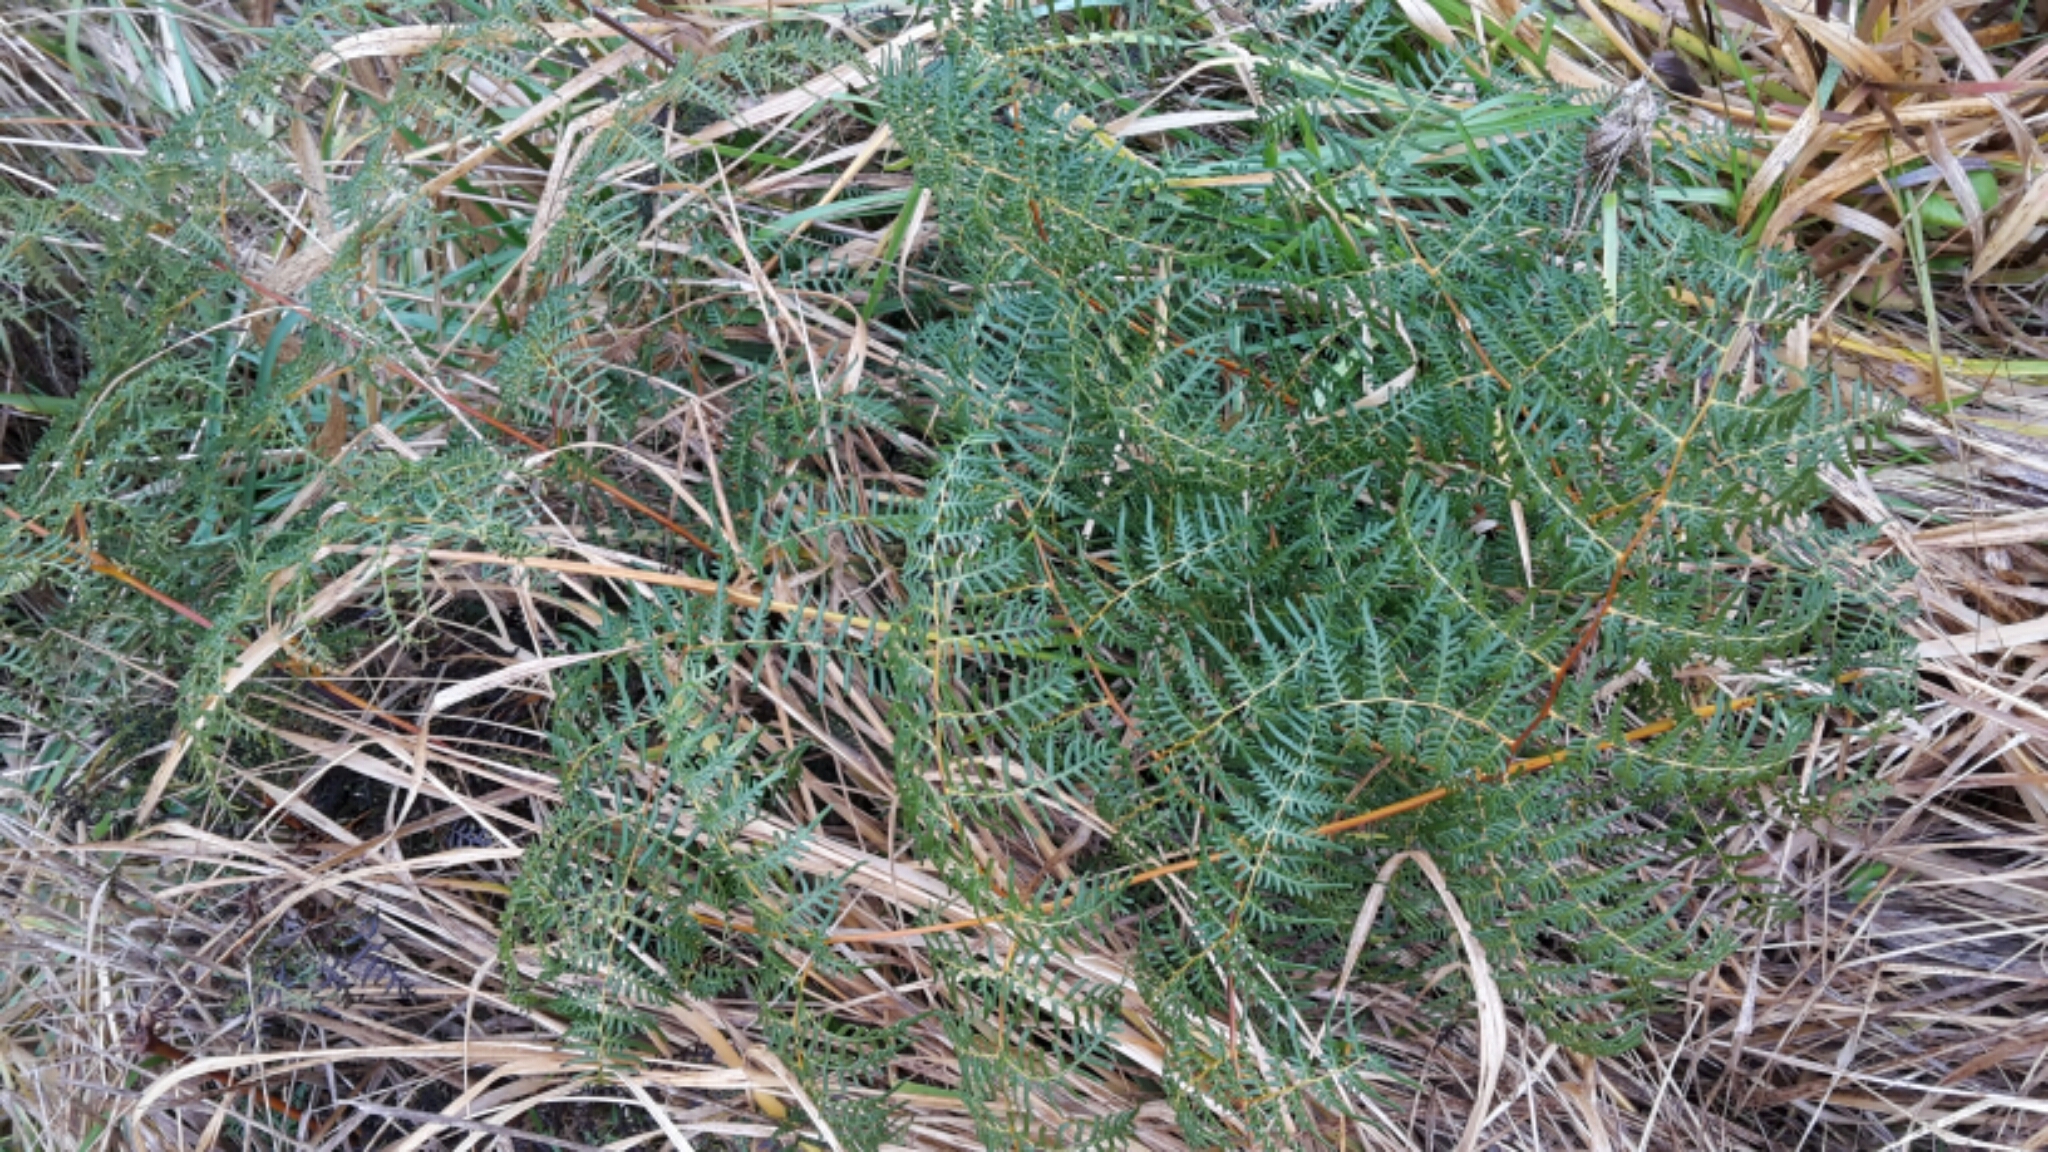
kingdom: Plantae
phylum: Tracheophyta
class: Polypodiopsida
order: Polypodiales
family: Dennstaedtiaceae
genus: Pteridium
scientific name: Pteridium esculentum
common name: Bracken fern
